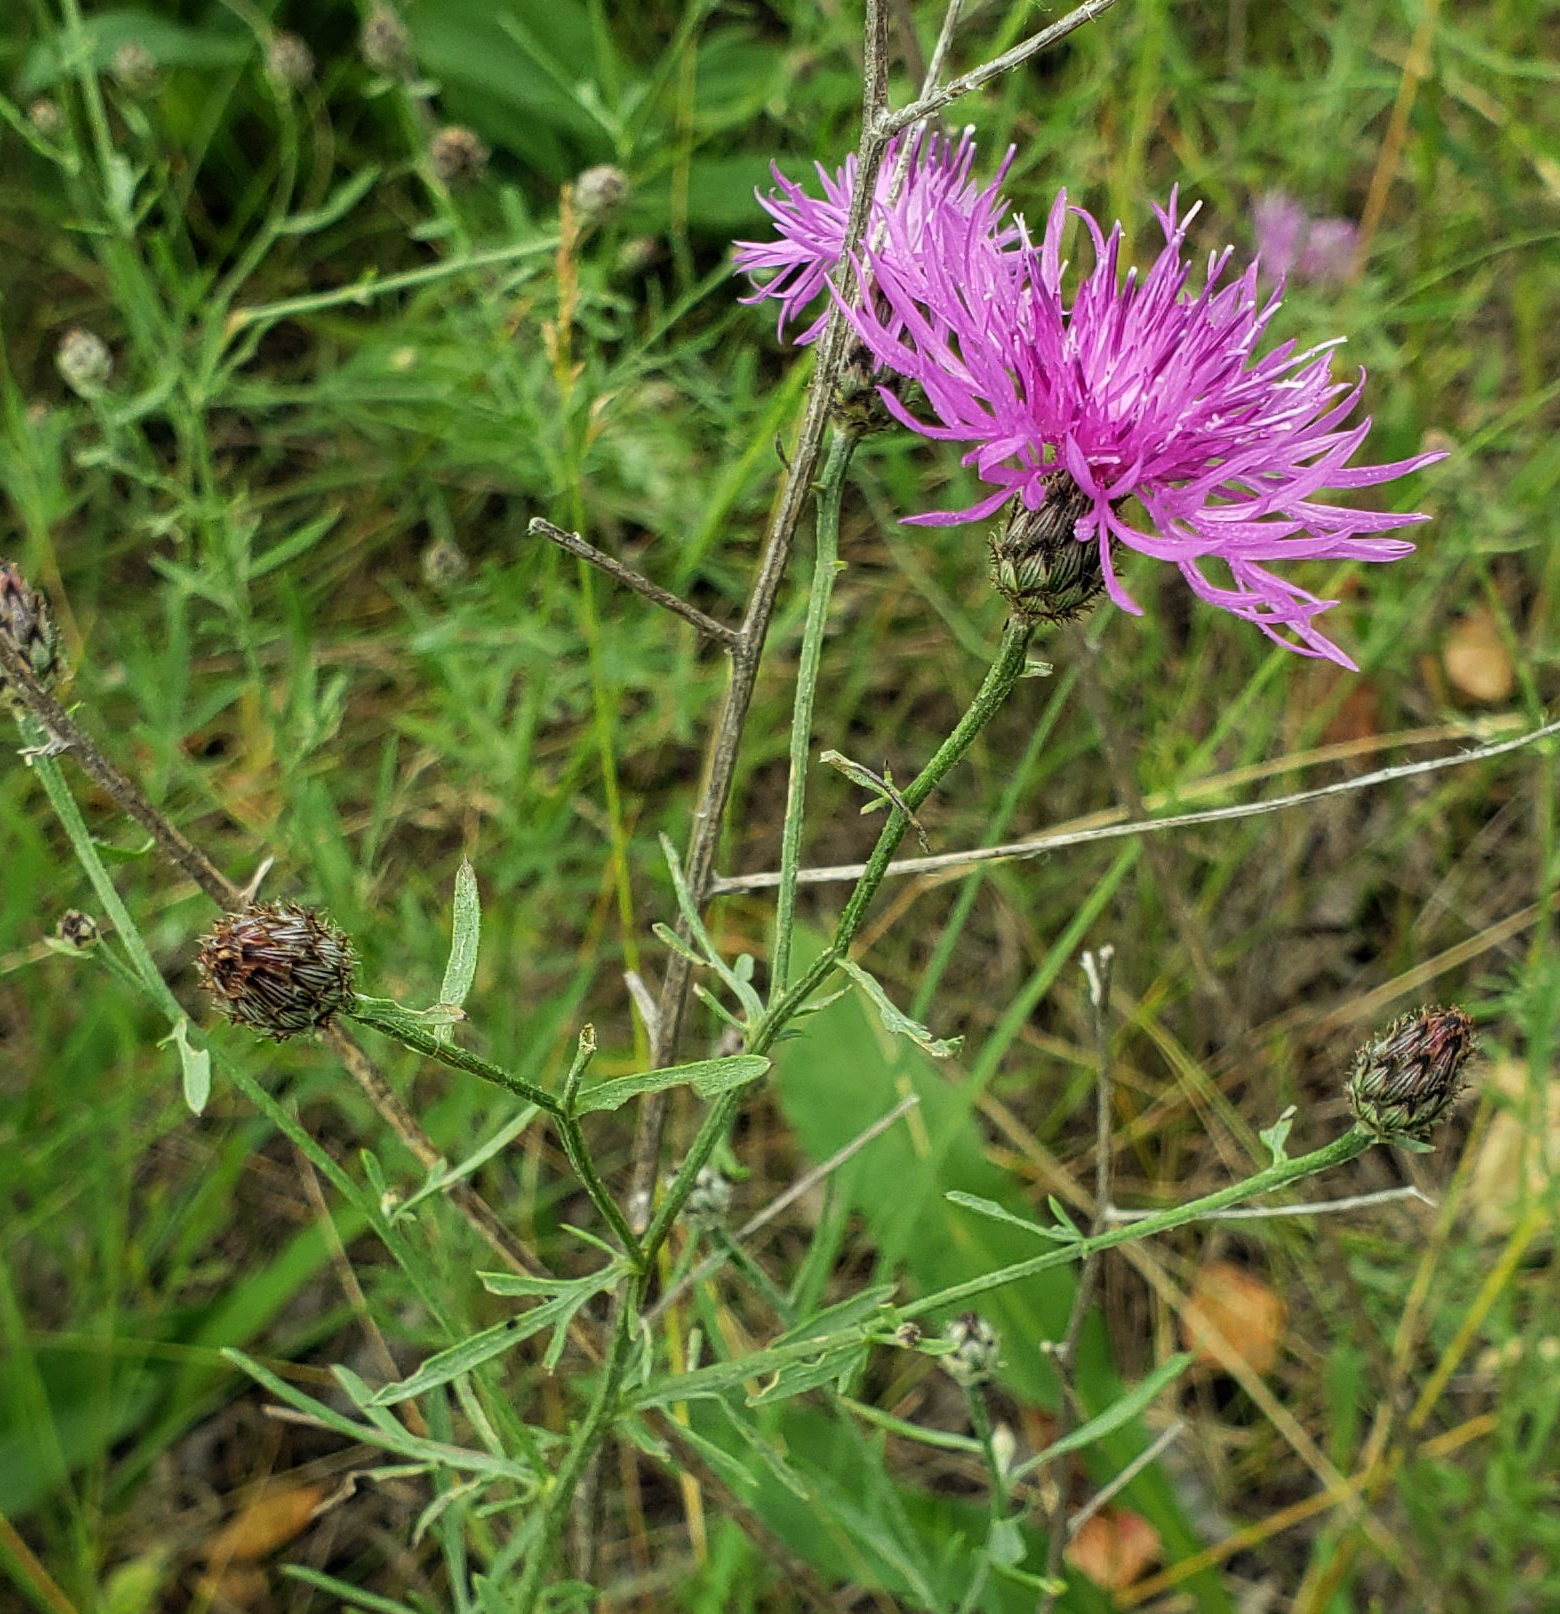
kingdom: Plantae
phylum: Tracheophyta
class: Magnoliopsida
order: Asterales
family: Asteraceae
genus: Centaurea
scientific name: Centaurea stoebe
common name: Spotted knapweed
